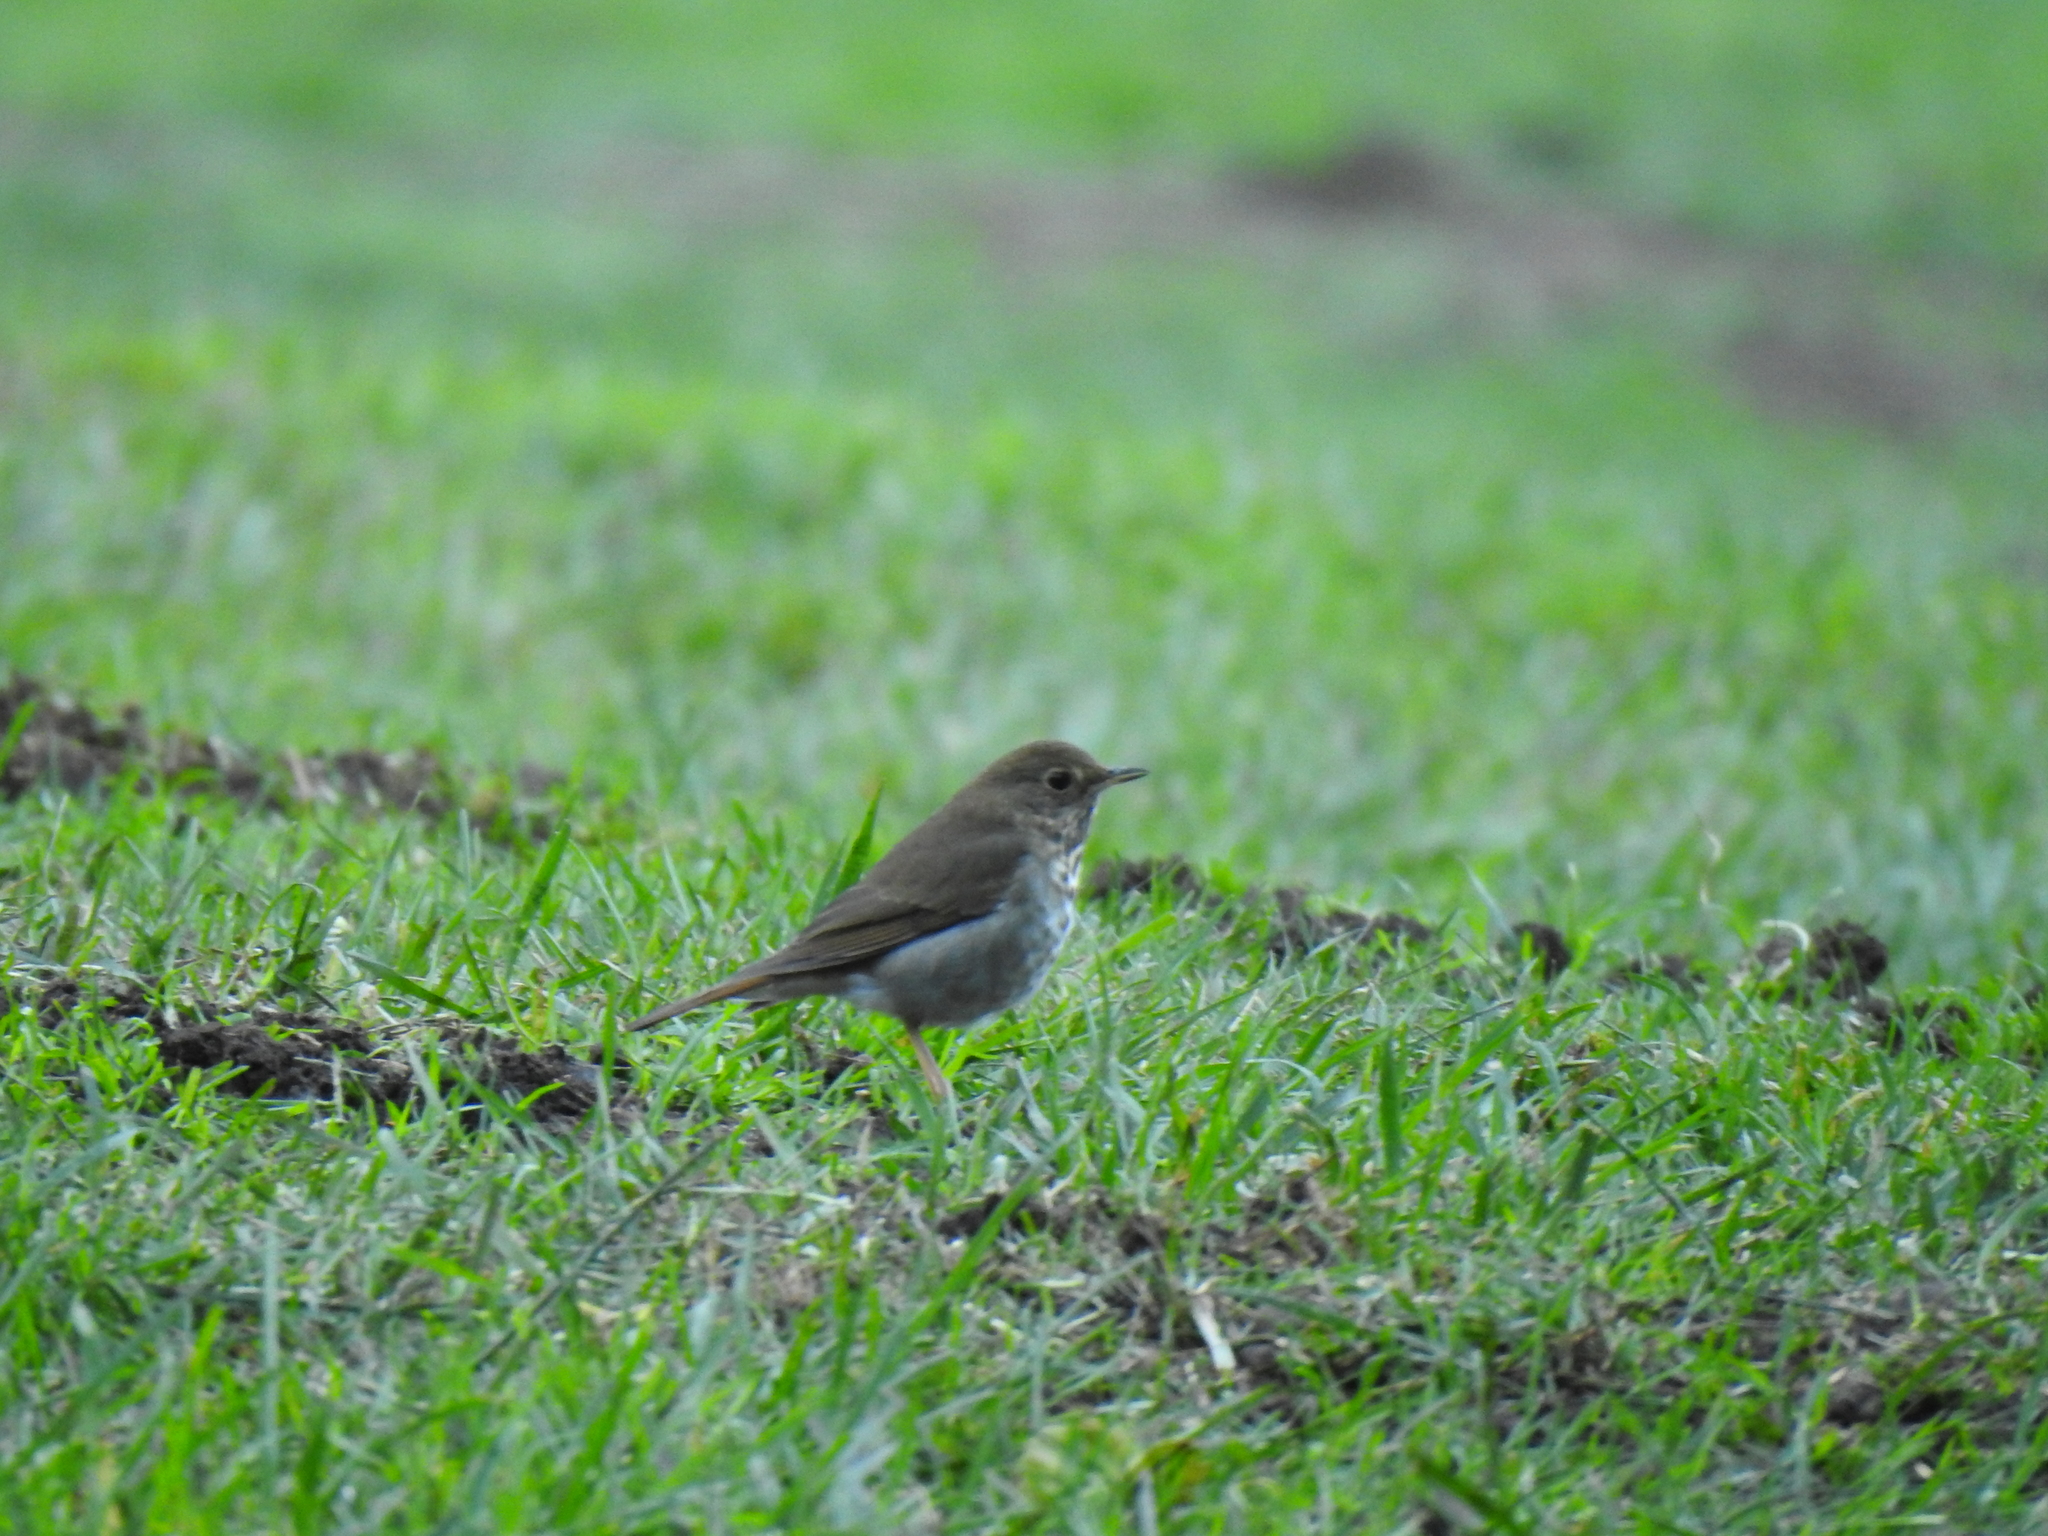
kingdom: Animalia
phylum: Chordata
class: Aves
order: Passeriformes
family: Turdidae
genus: Catharus
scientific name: Catharus guttatus
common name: Hermit thrush
